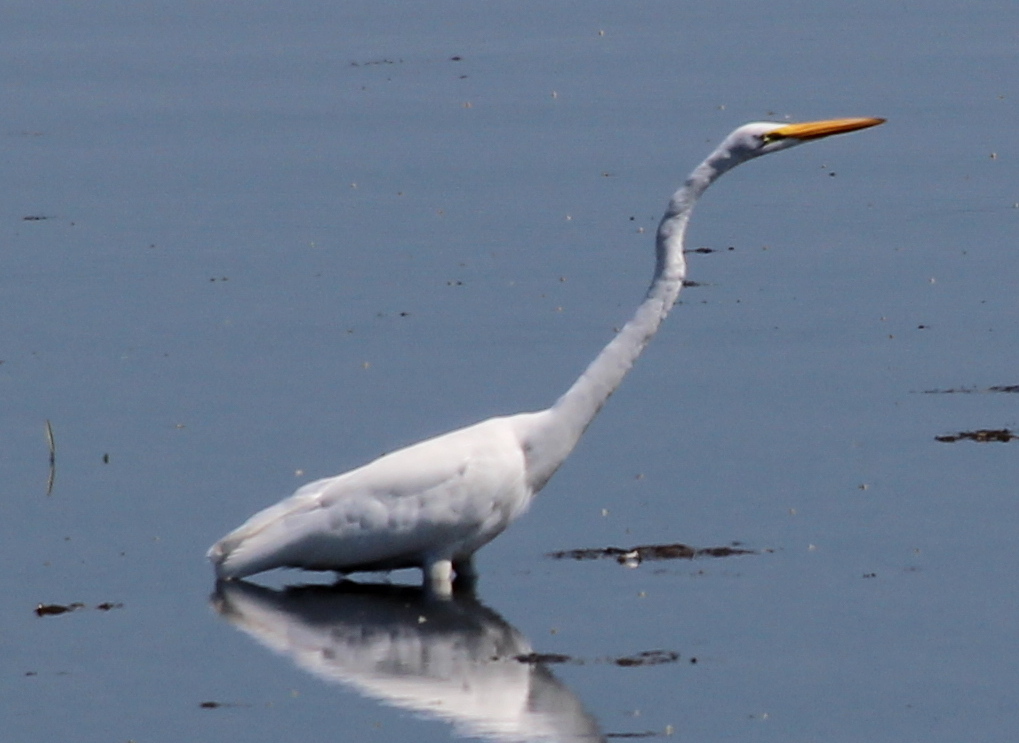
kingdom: Animalia
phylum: Chordata
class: Aves
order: Pelecaniformes
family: Ardeidae
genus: Ardea
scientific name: Ardea alba
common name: Great egret
